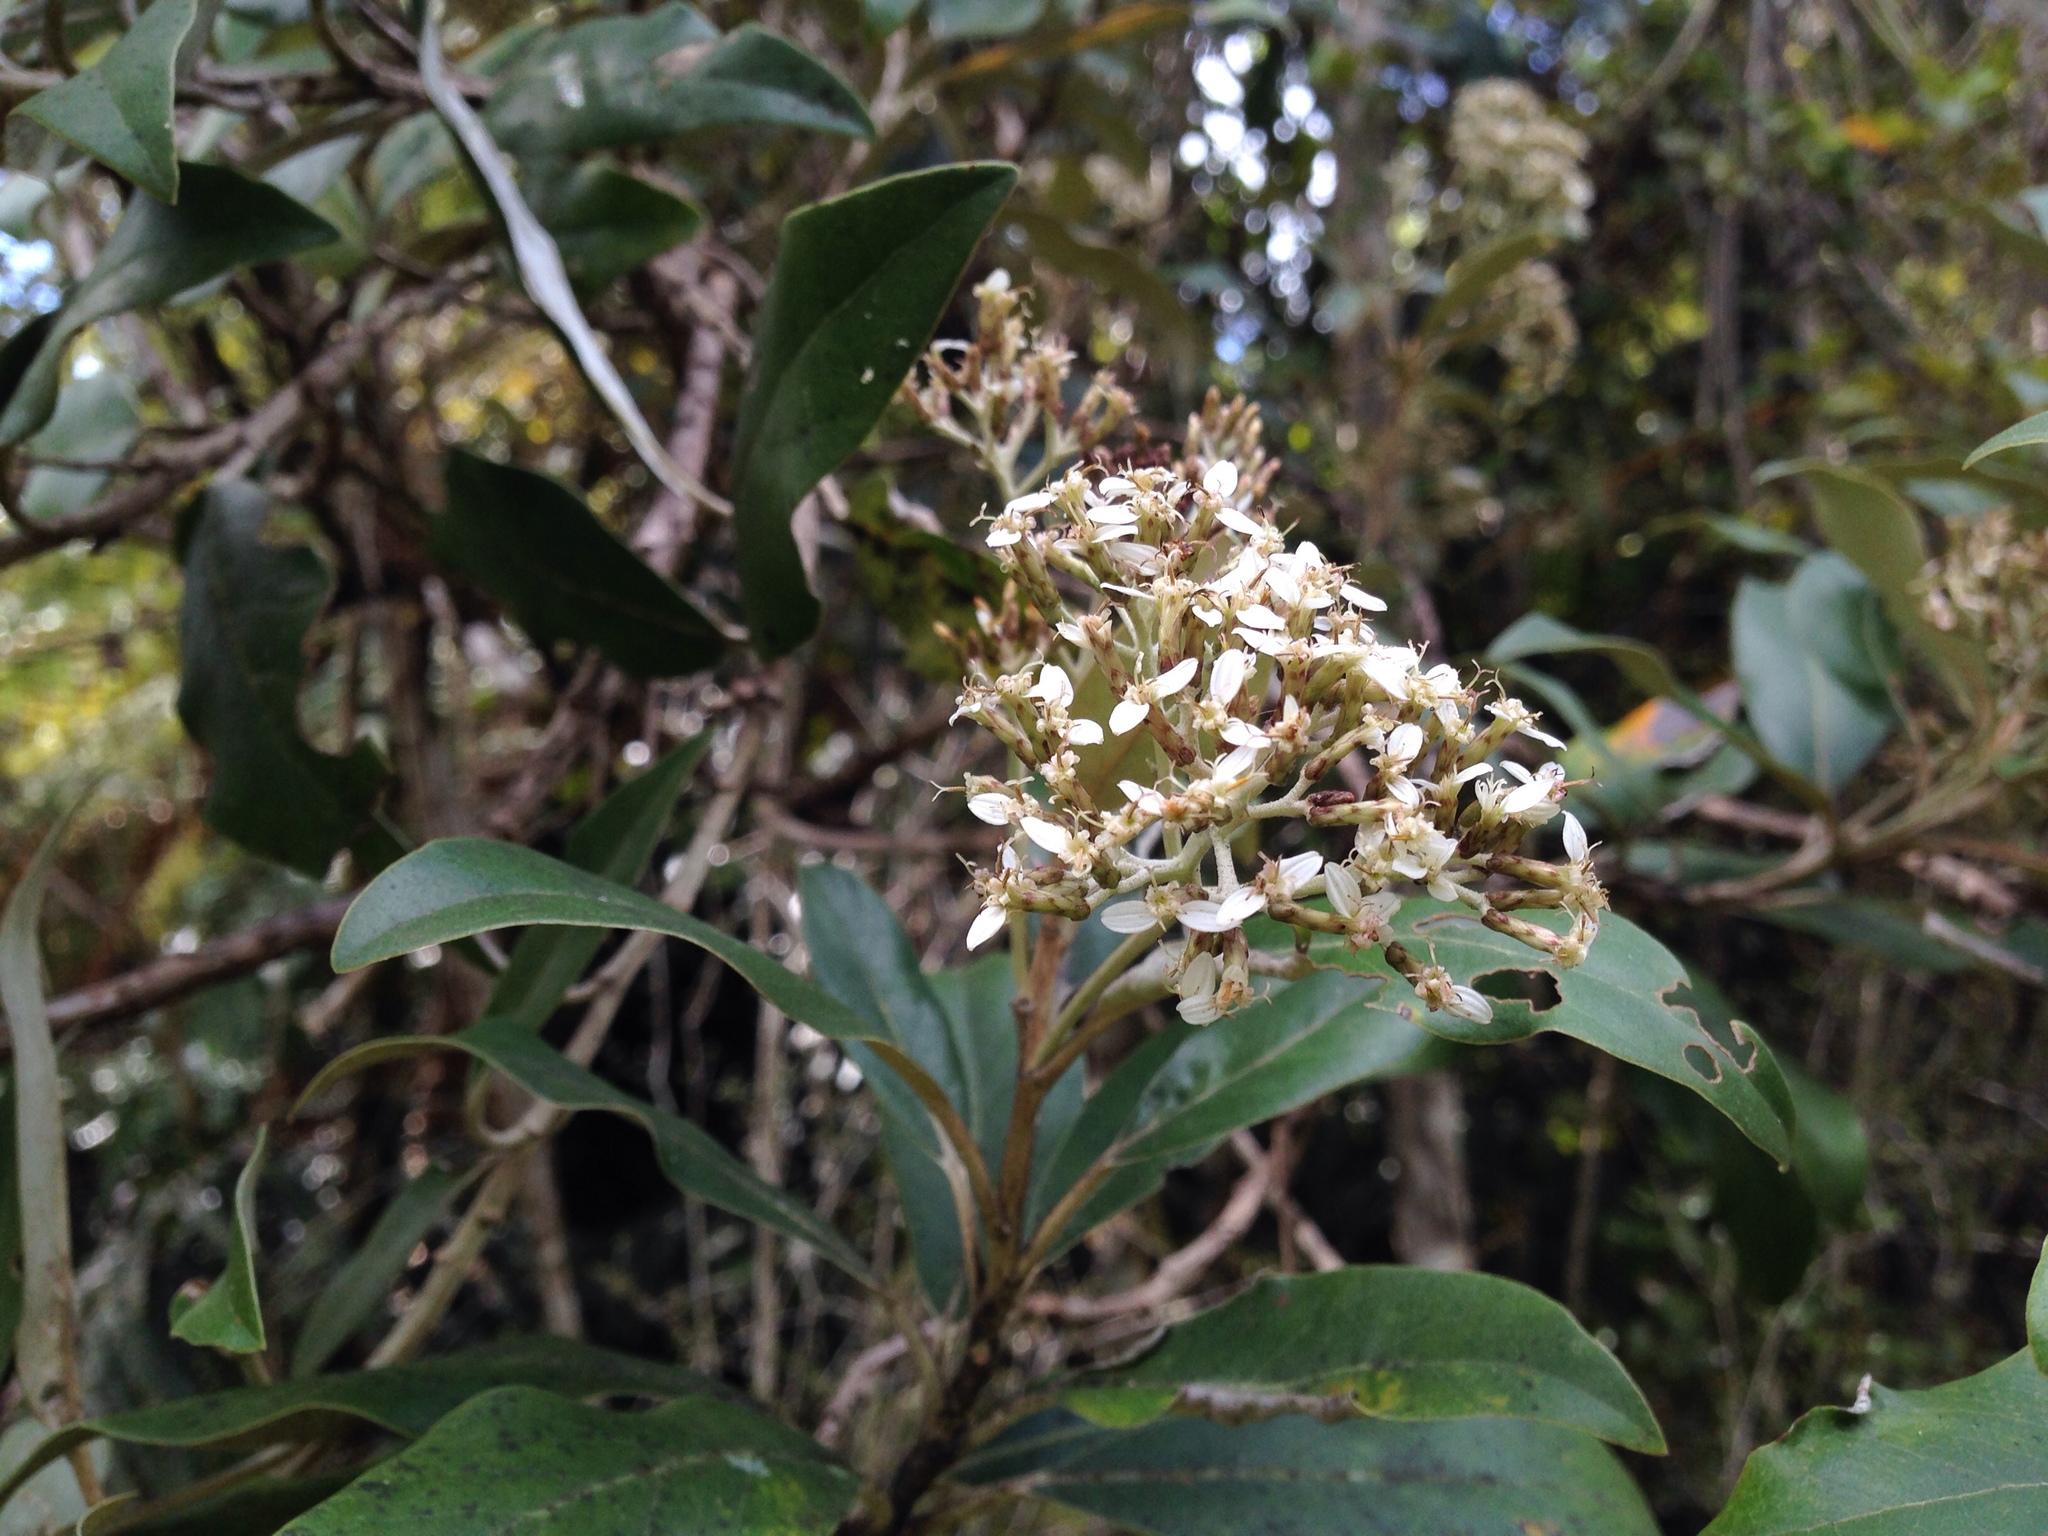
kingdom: Plantae
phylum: Tracheophyta
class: Magnoliopsida
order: Asterales
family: Asteraceae
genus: Olearia
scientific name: Olearia avicenniifolia
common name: Mangrove-leaf daisybush
